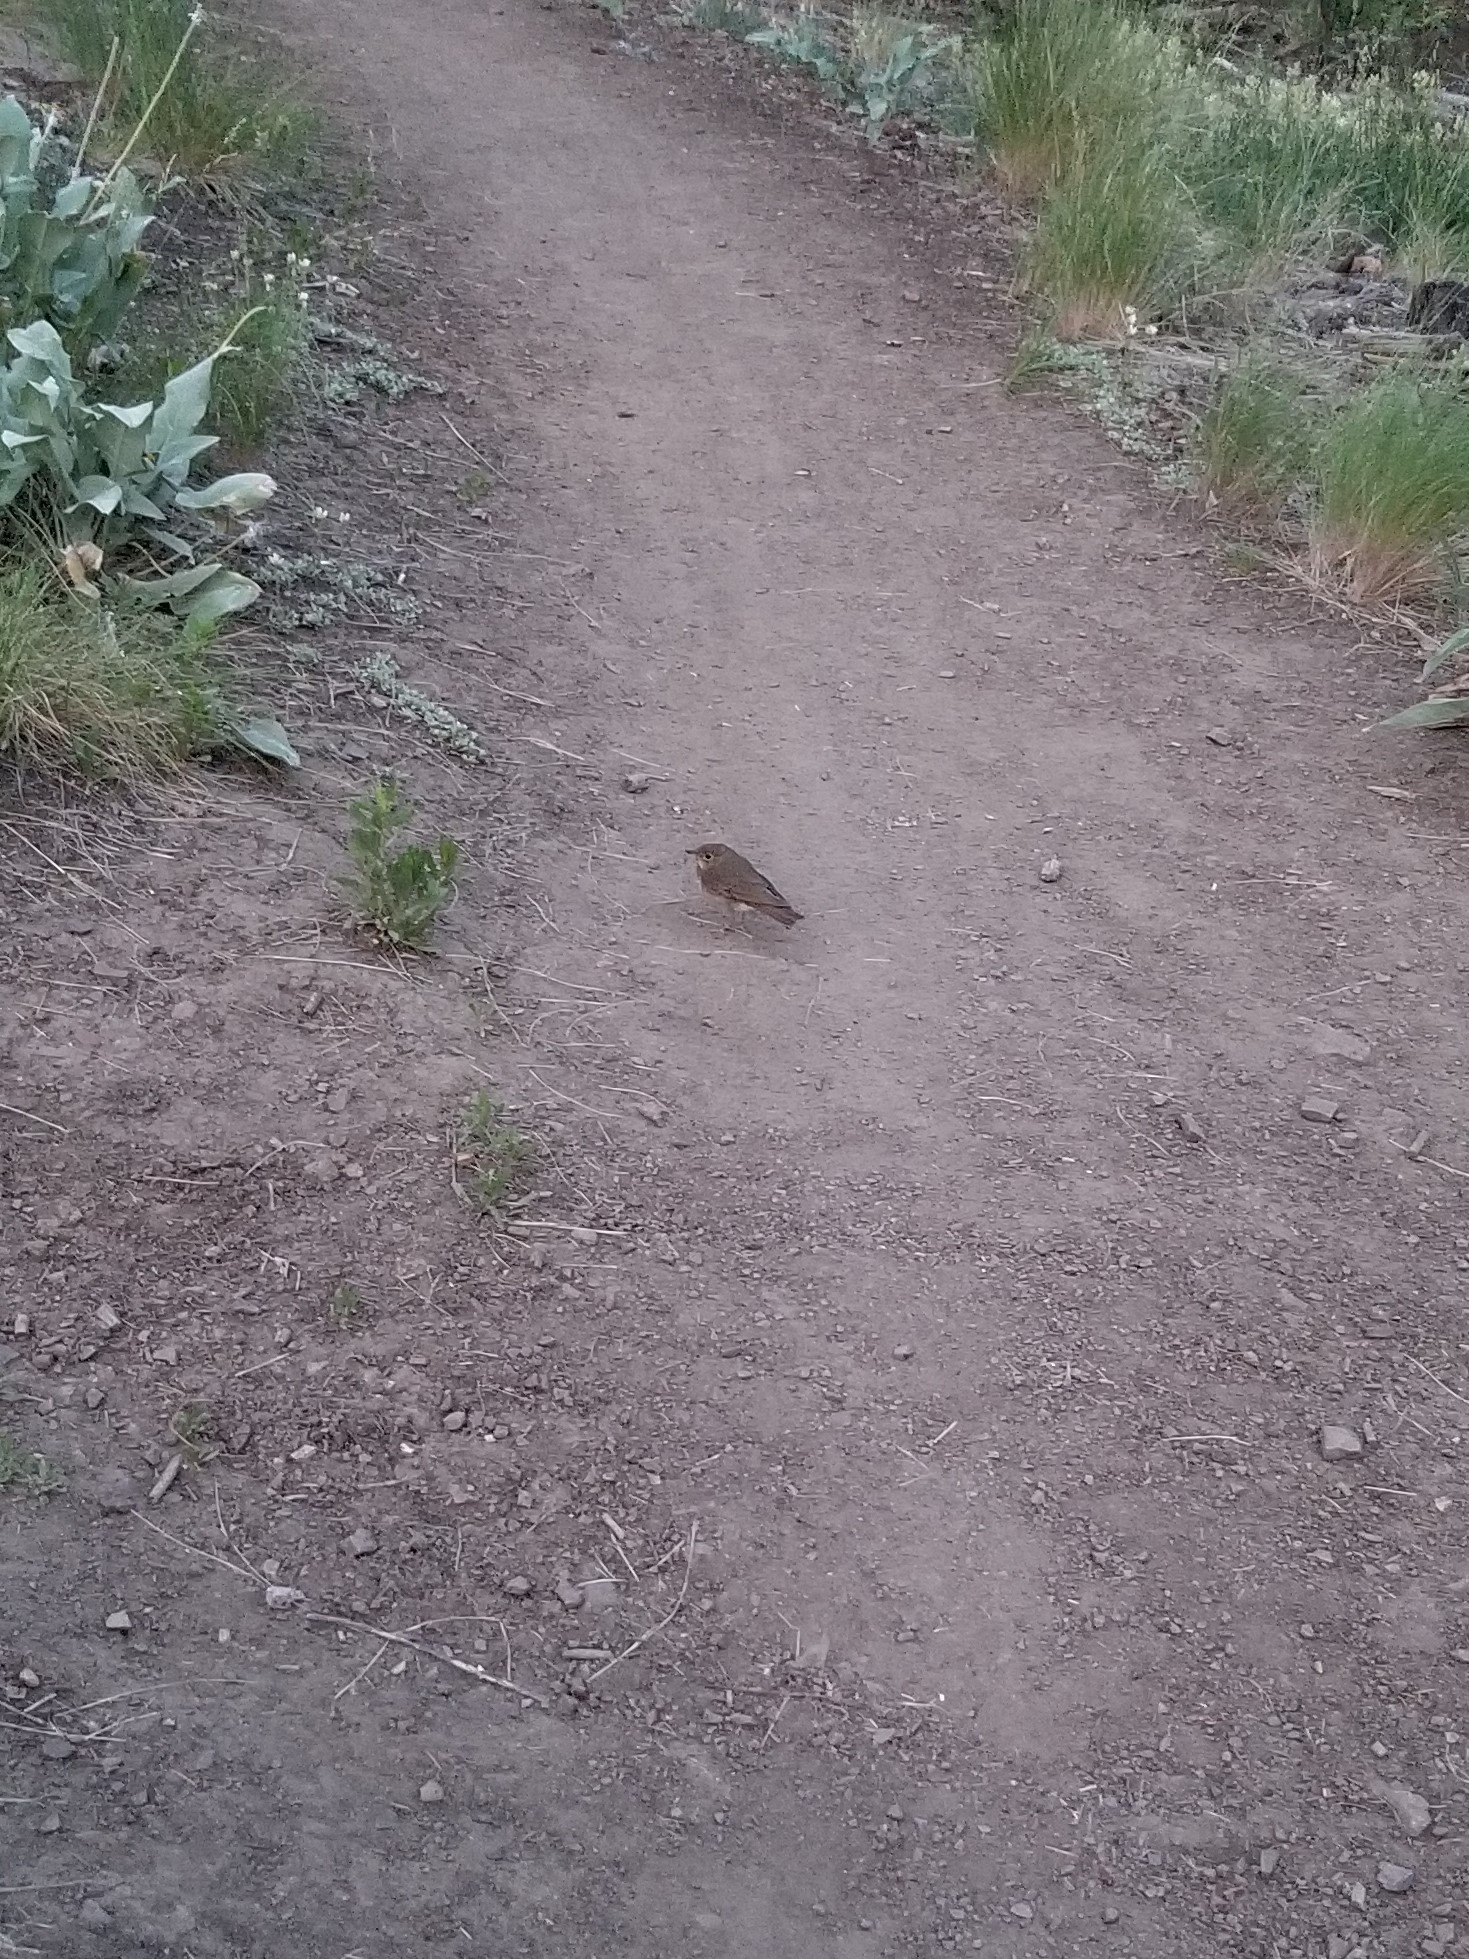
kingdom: Animalia
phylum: Chordata
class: Aves
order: Passeriformes
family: Turdidae
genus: Catharus
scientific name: Catharus ustulatus
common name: Swainson's thrush
